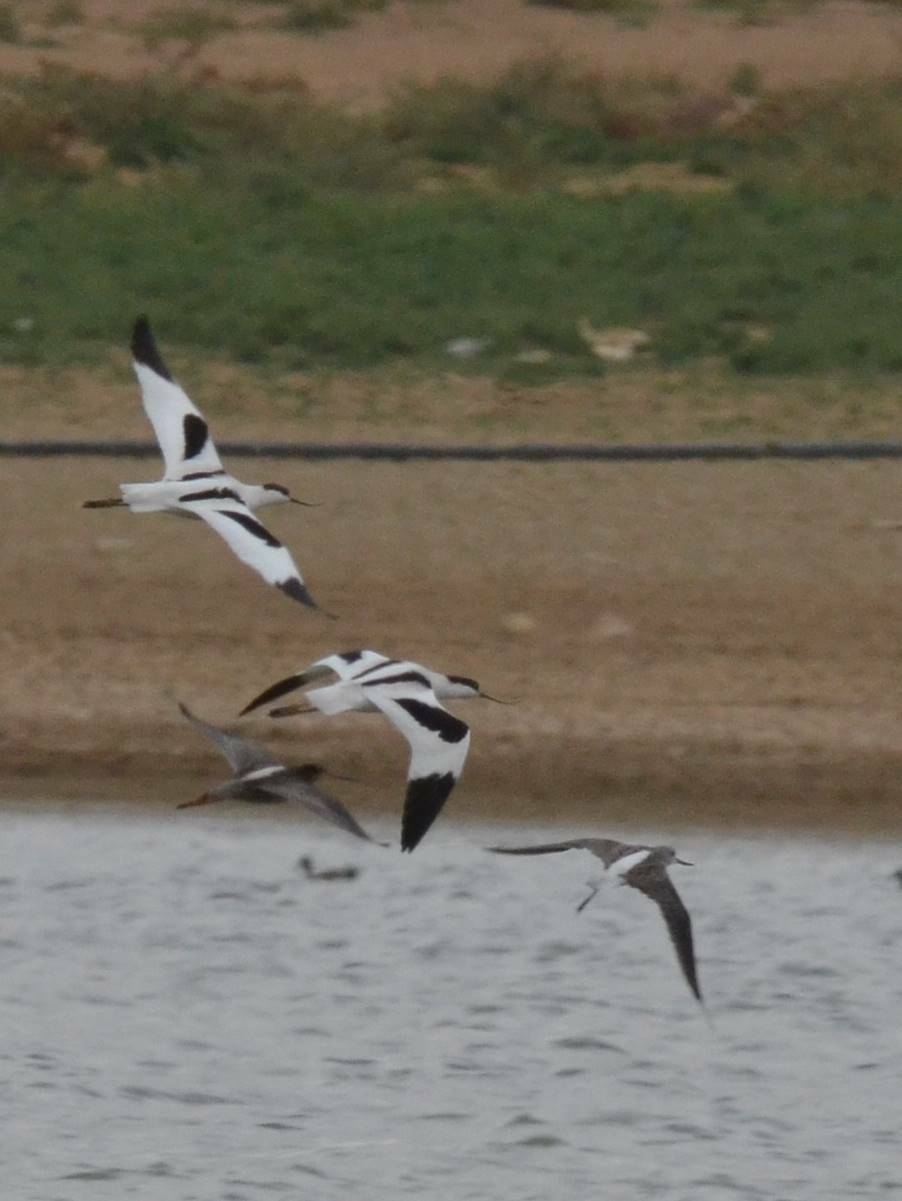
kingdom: Animalia
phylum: Chordata
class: Aves
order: Charadriiformes
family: Recurvirostridae
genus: Recurvirostra
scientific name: Recurvirostra avosetta
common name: Pied avocet
